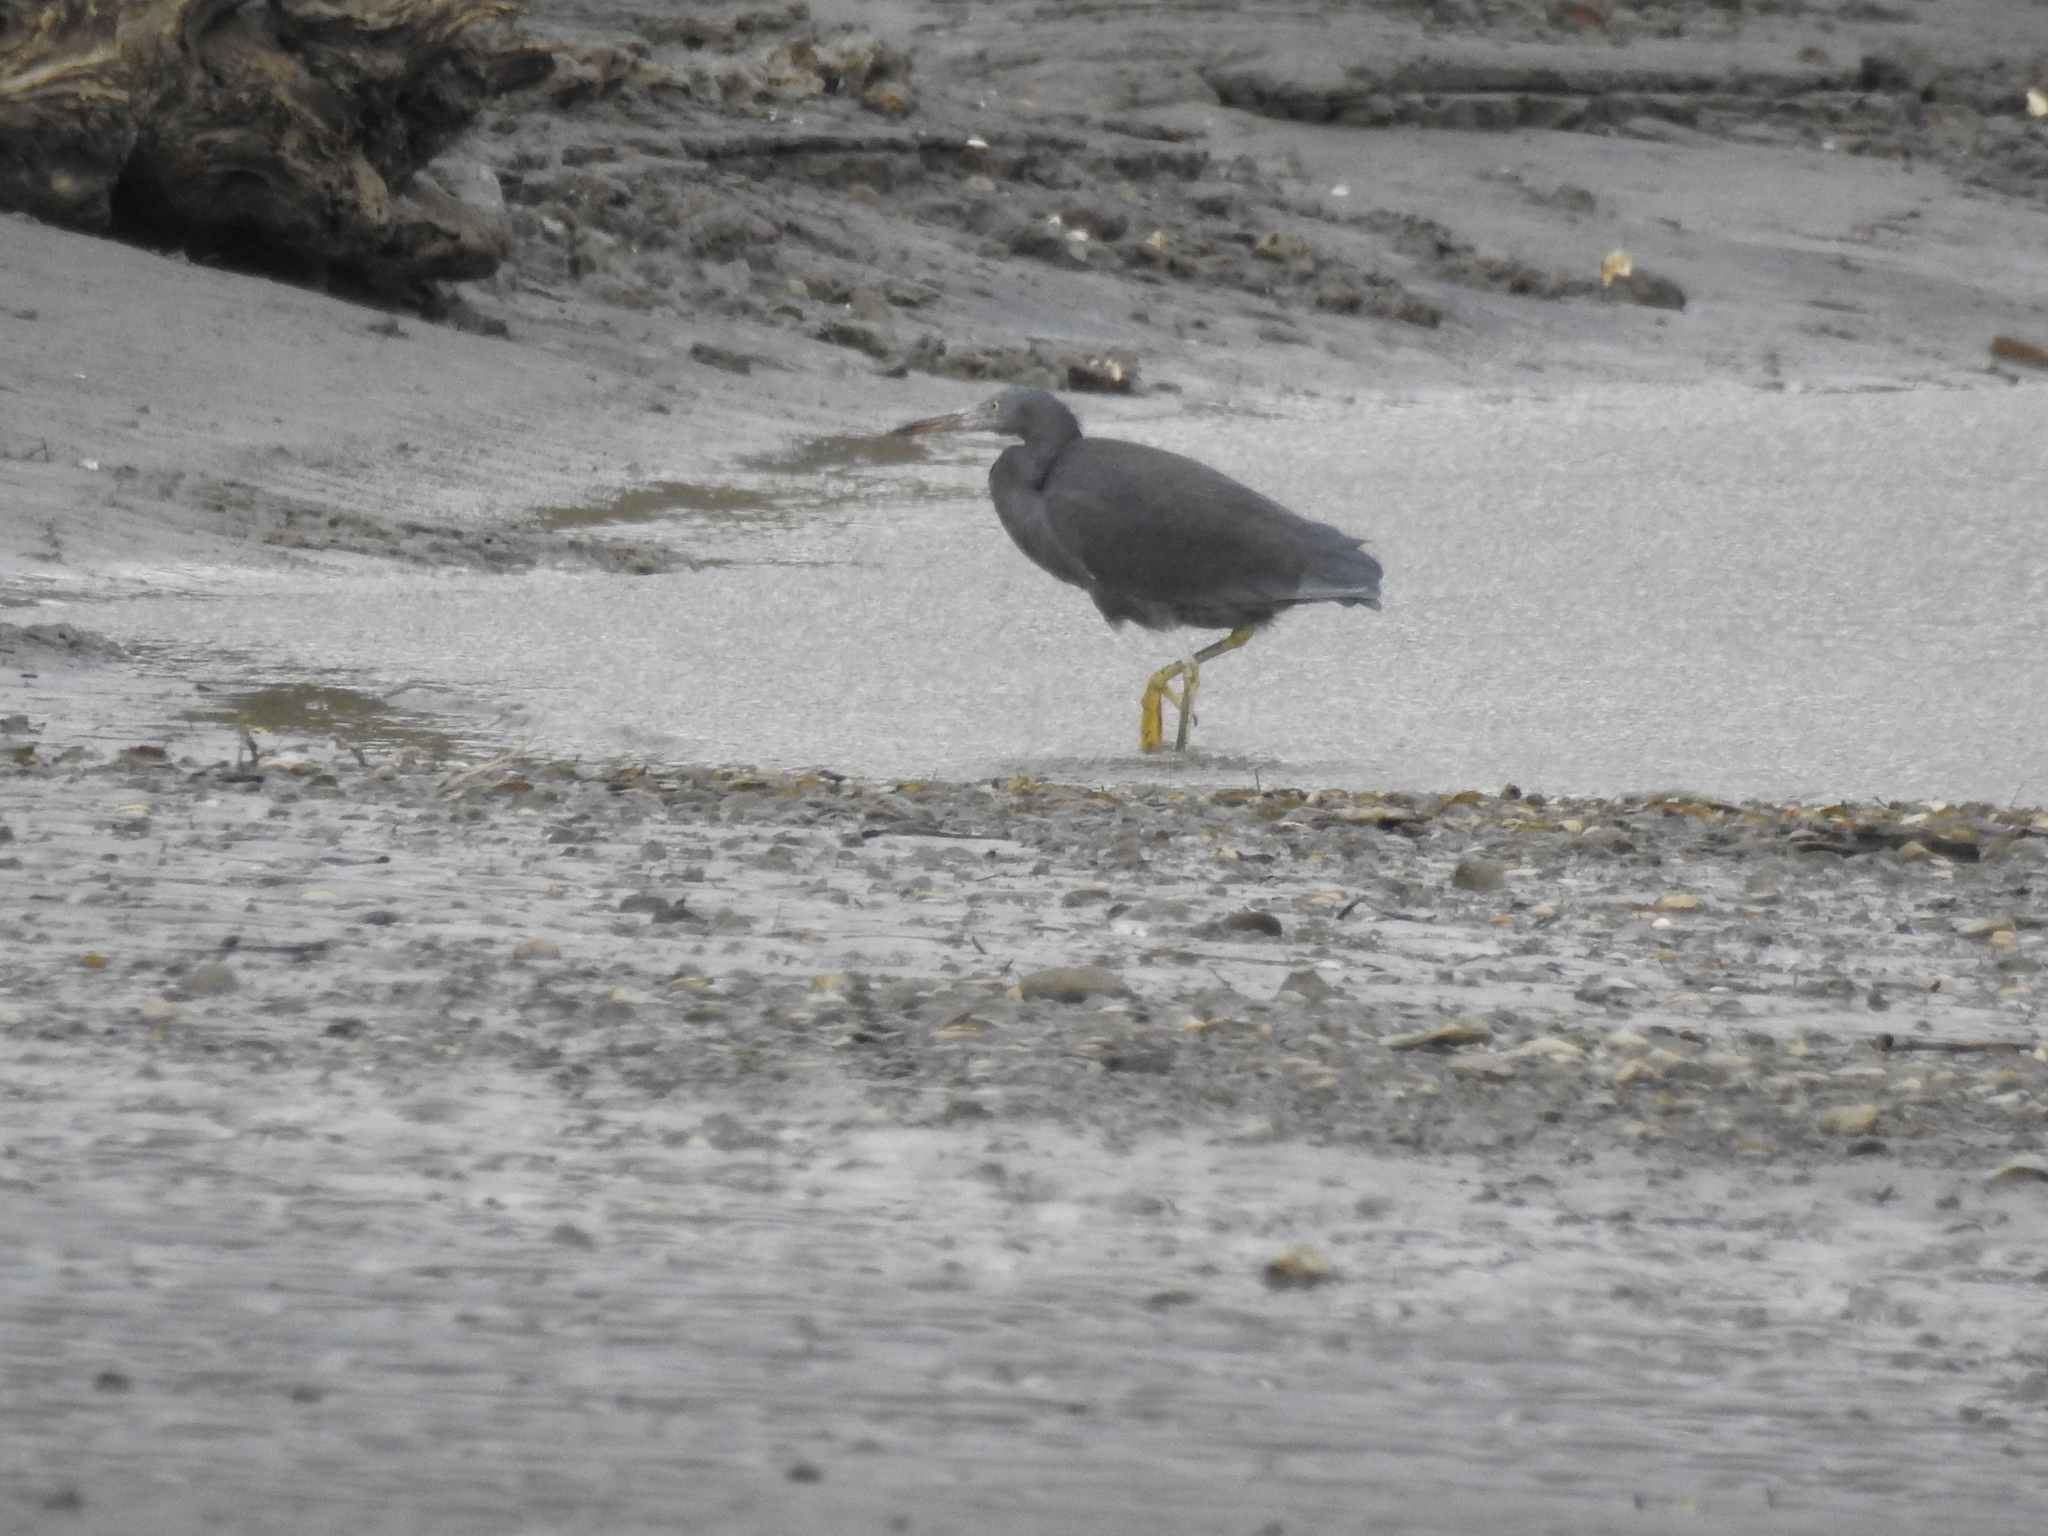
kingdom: Animalia
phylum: Chordata
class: Aves
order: Pelecaniformes
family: Ardeidae
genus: Egretta
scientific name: Egretta sacra
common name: Pacific reef heron
